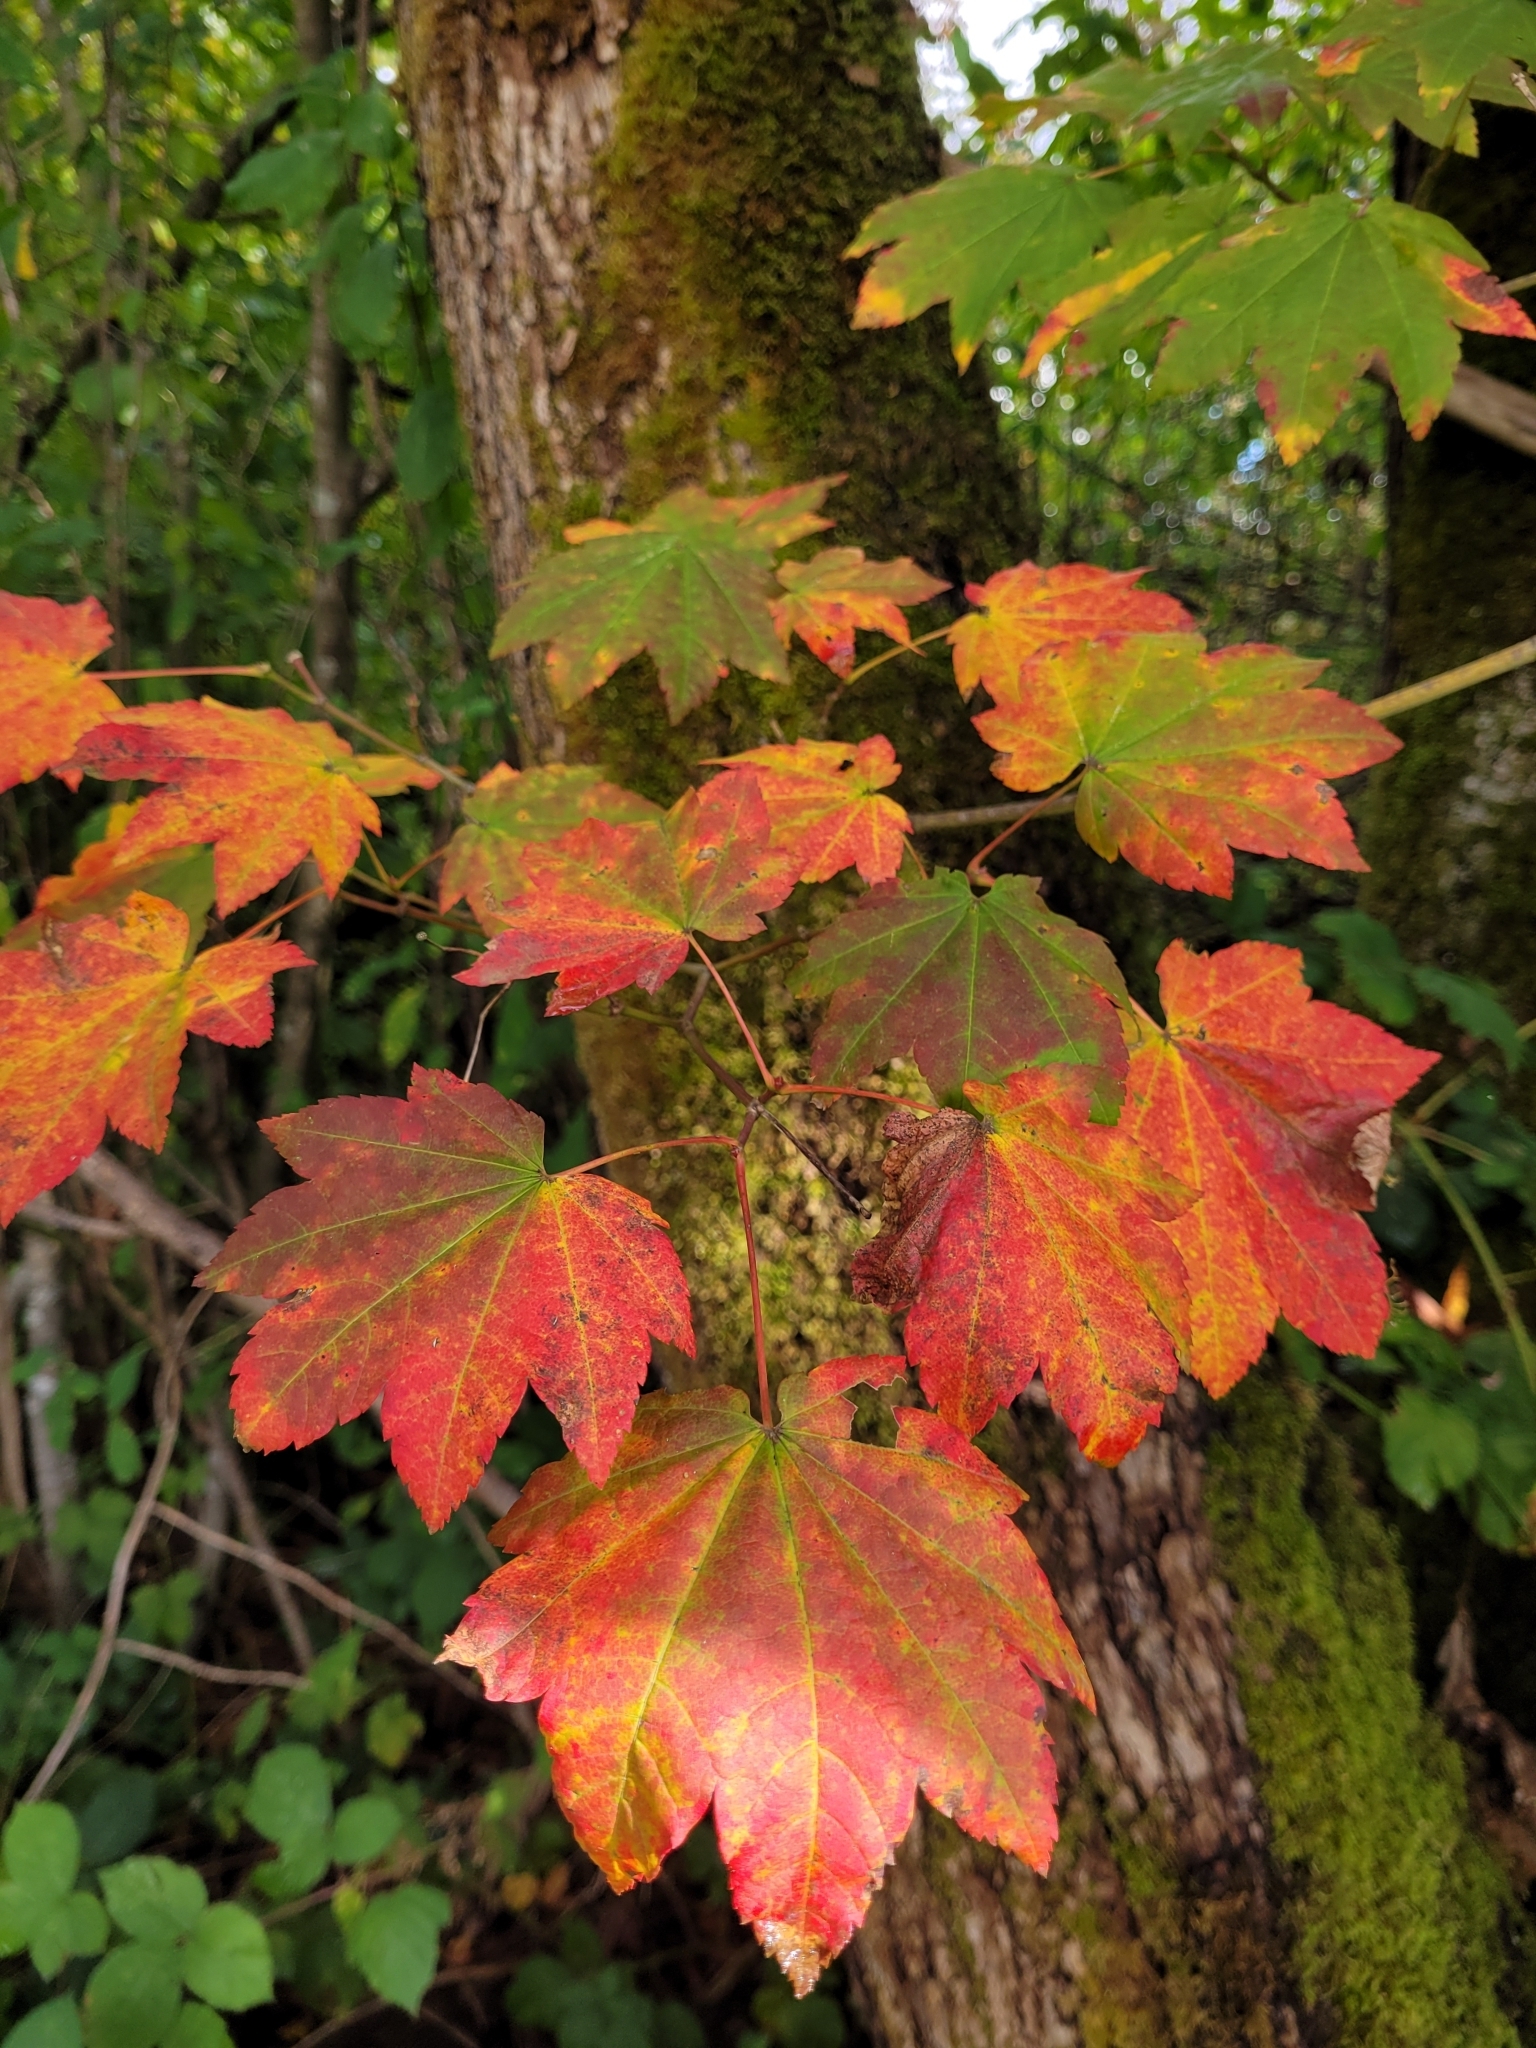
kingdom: Plantae
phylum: Tracheophyta
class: Magnoliopsida
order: Sapindales
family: Sapindaceae
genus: Acer
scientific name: Acer circinatum
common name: Vine maple
